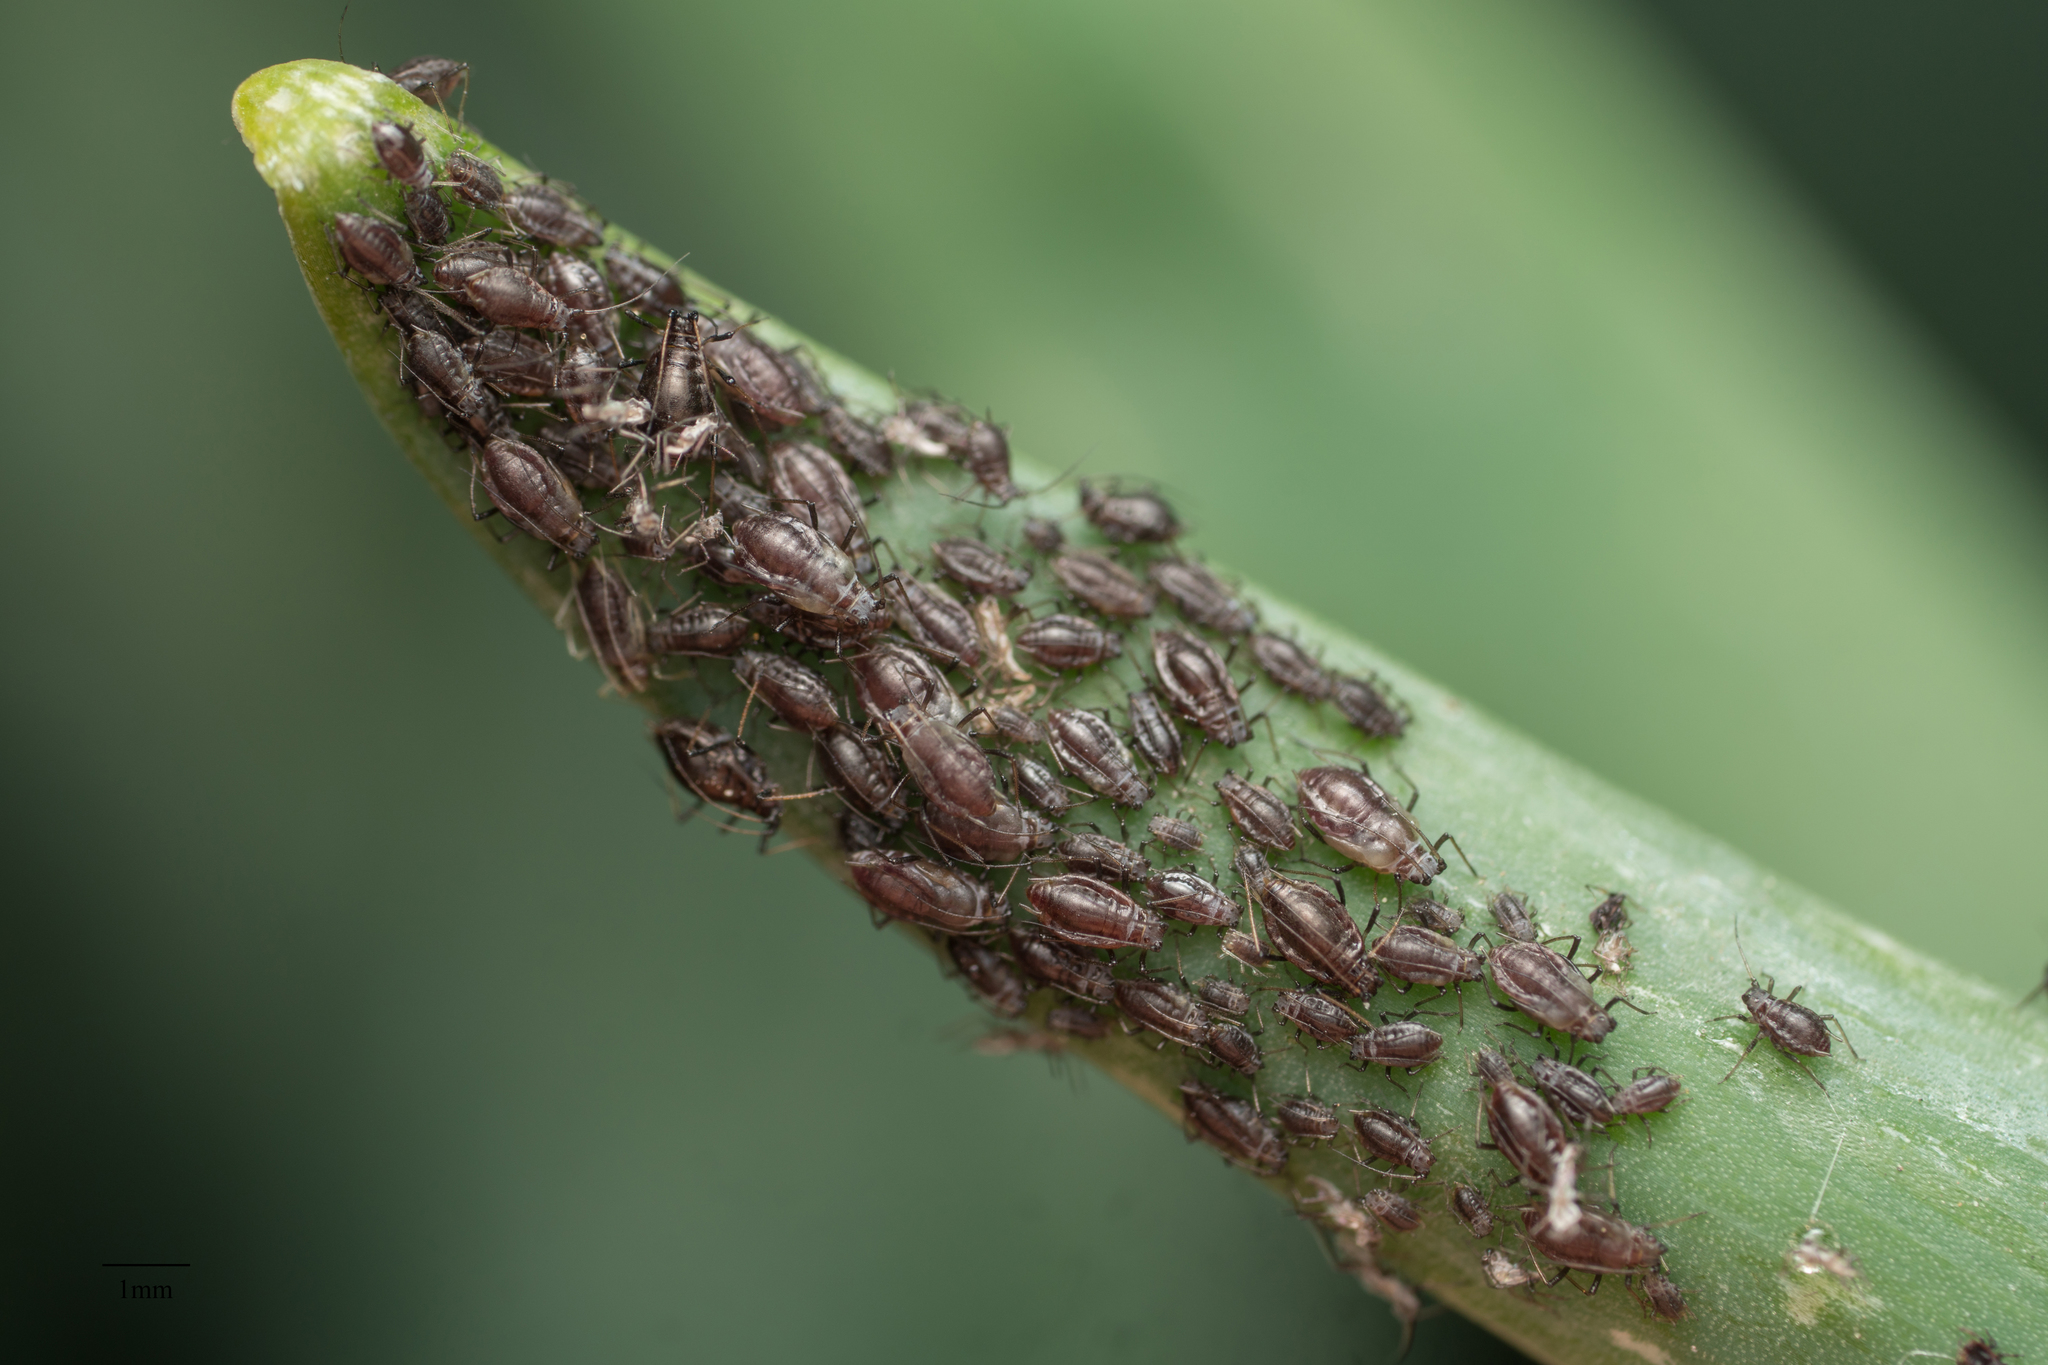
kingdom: Animalia
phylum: Arthropoda
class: Insecta
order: Hemiptera
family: Aphididae
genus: Neotoxoptera
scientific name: Neotoxoptera formosana
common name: Onion aphid
